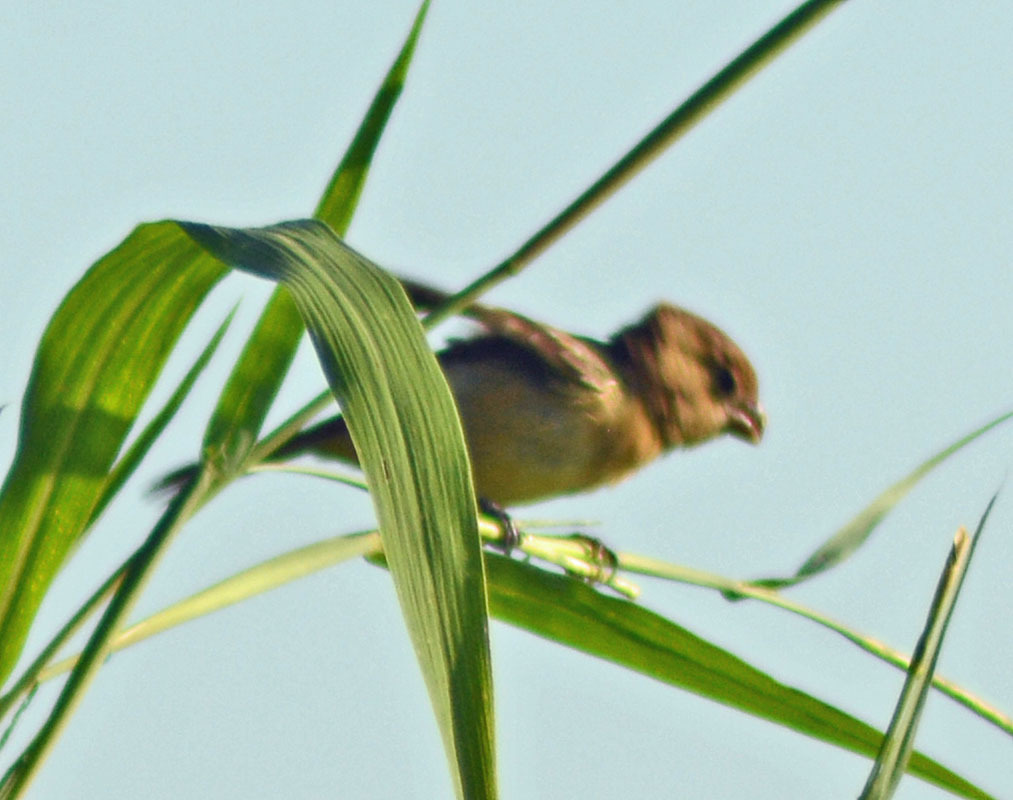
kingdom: Animalia
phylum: Chordata
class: Aves
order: Passeriformes
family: Thraupidae
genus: Sporophila
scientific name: Sporophila morelleti
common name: Morelet's seedeater
